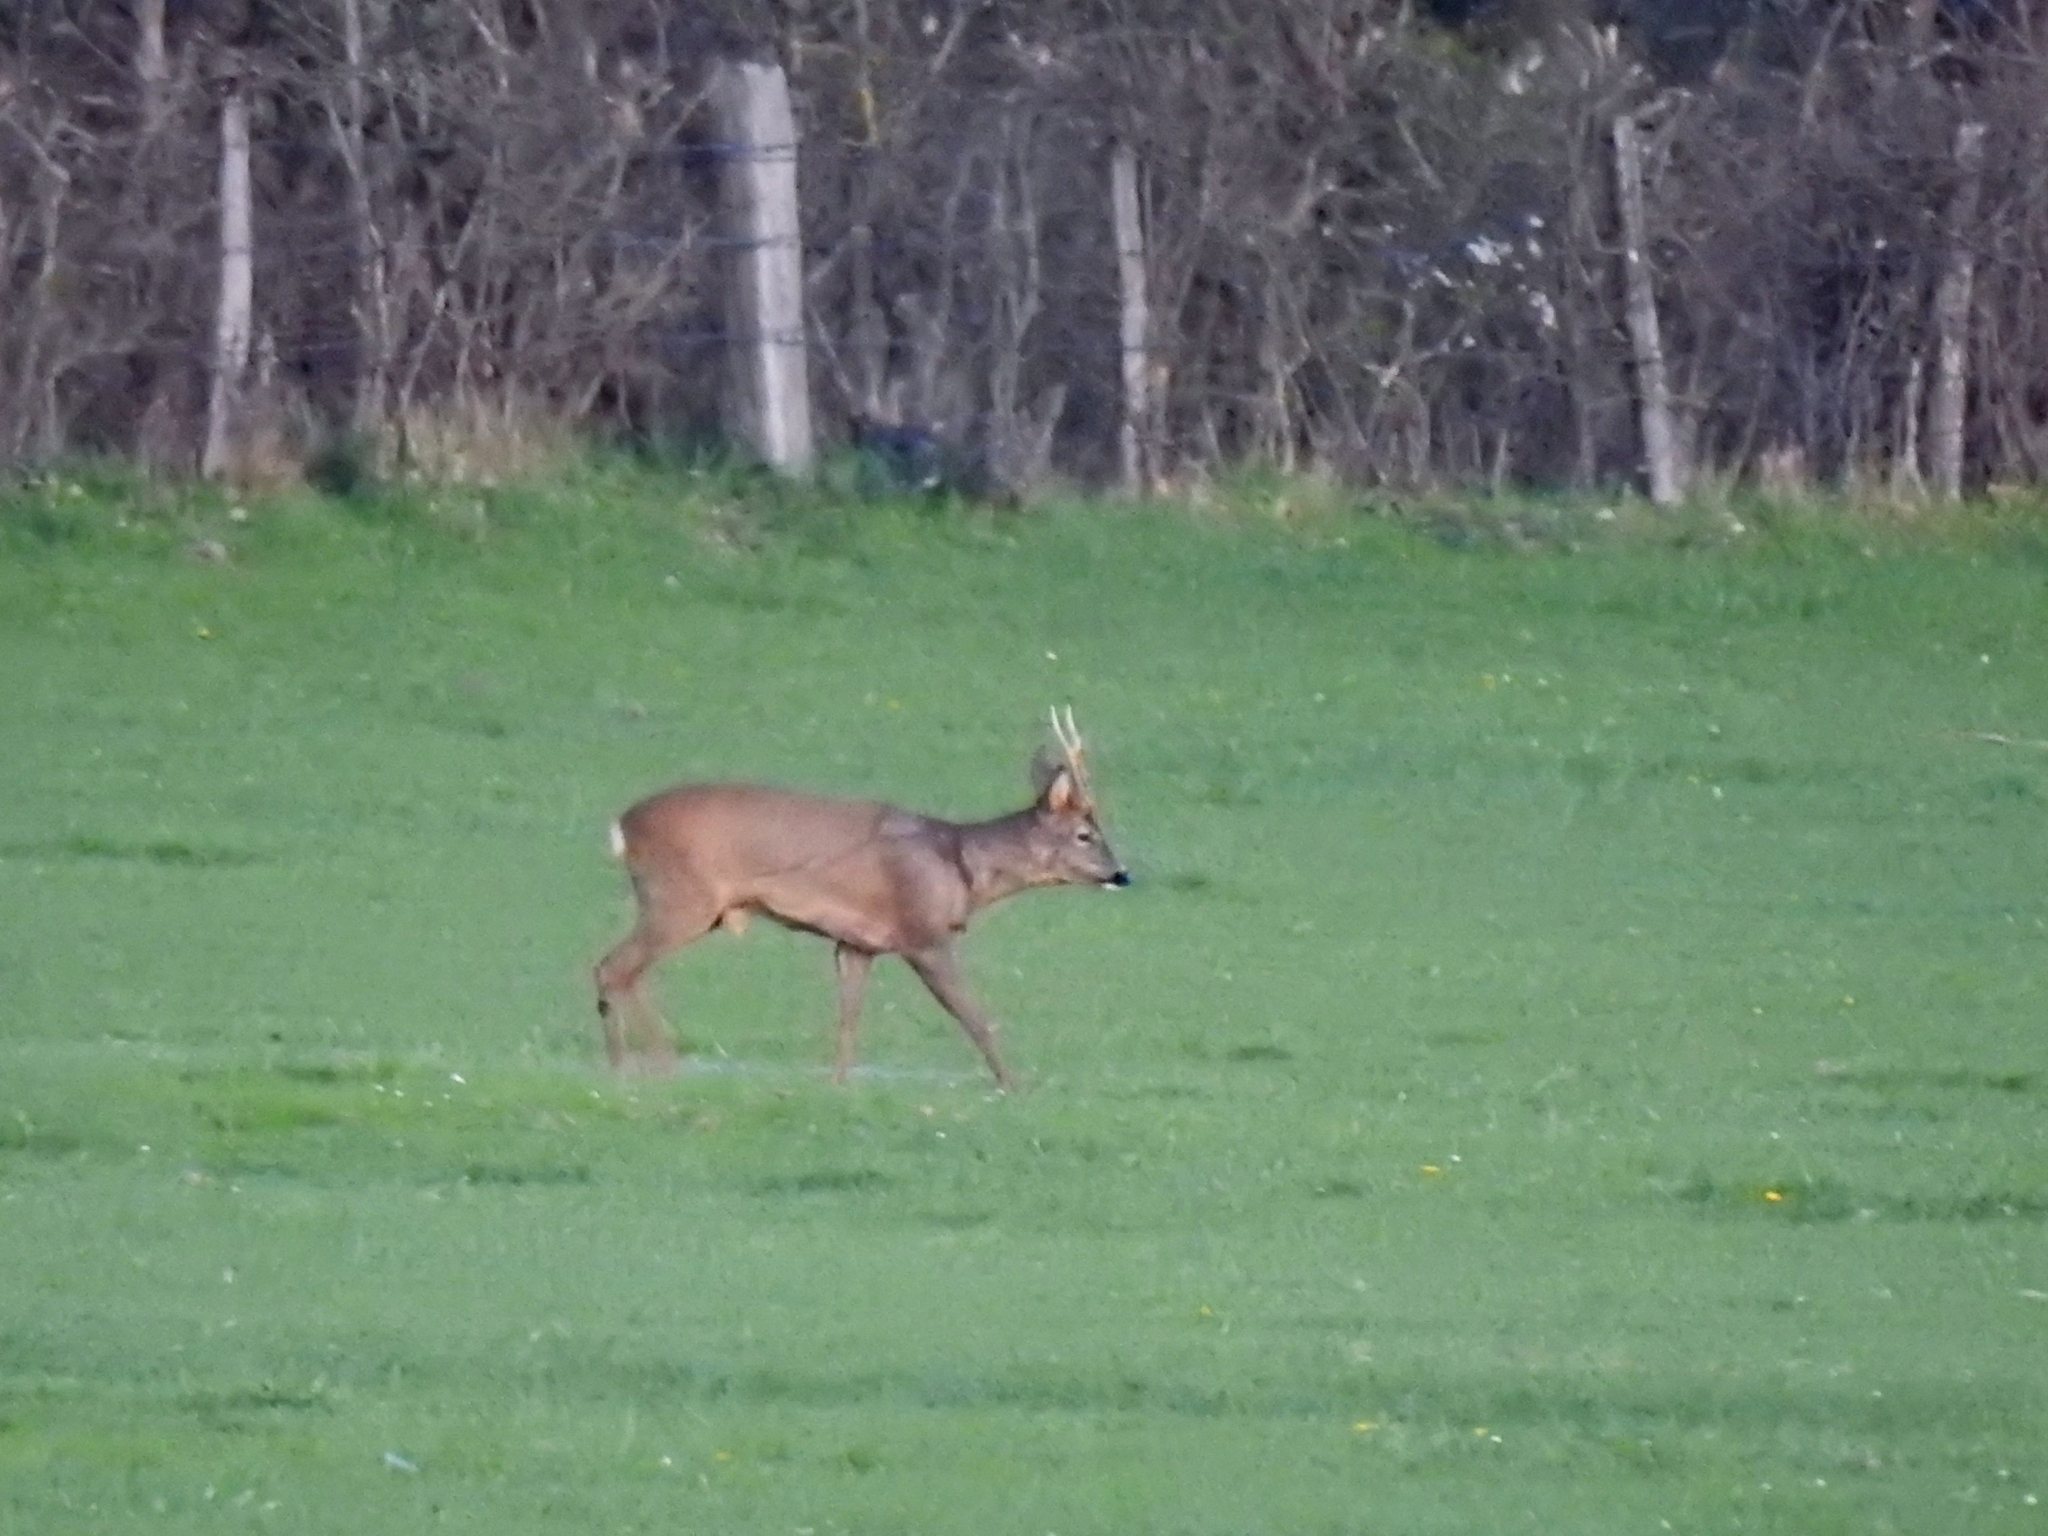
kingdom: Animalia
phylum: Chordata
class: Mammalia
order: Artiodactyla
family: Cervidae
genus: Capreolus
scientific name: Capreolus capreolus
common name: Western roe deer
